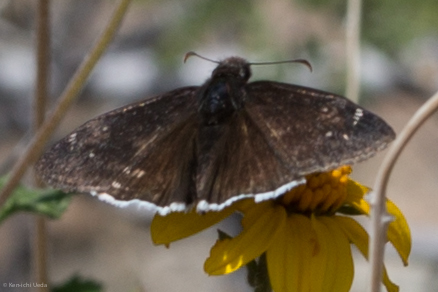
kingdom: Animalia
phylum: Arthropoda
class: Insecta
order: Lepidoptera
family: Hesperiidae
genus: Erynnis
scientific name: Erynnis funeralis
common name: Funereal duskywing
